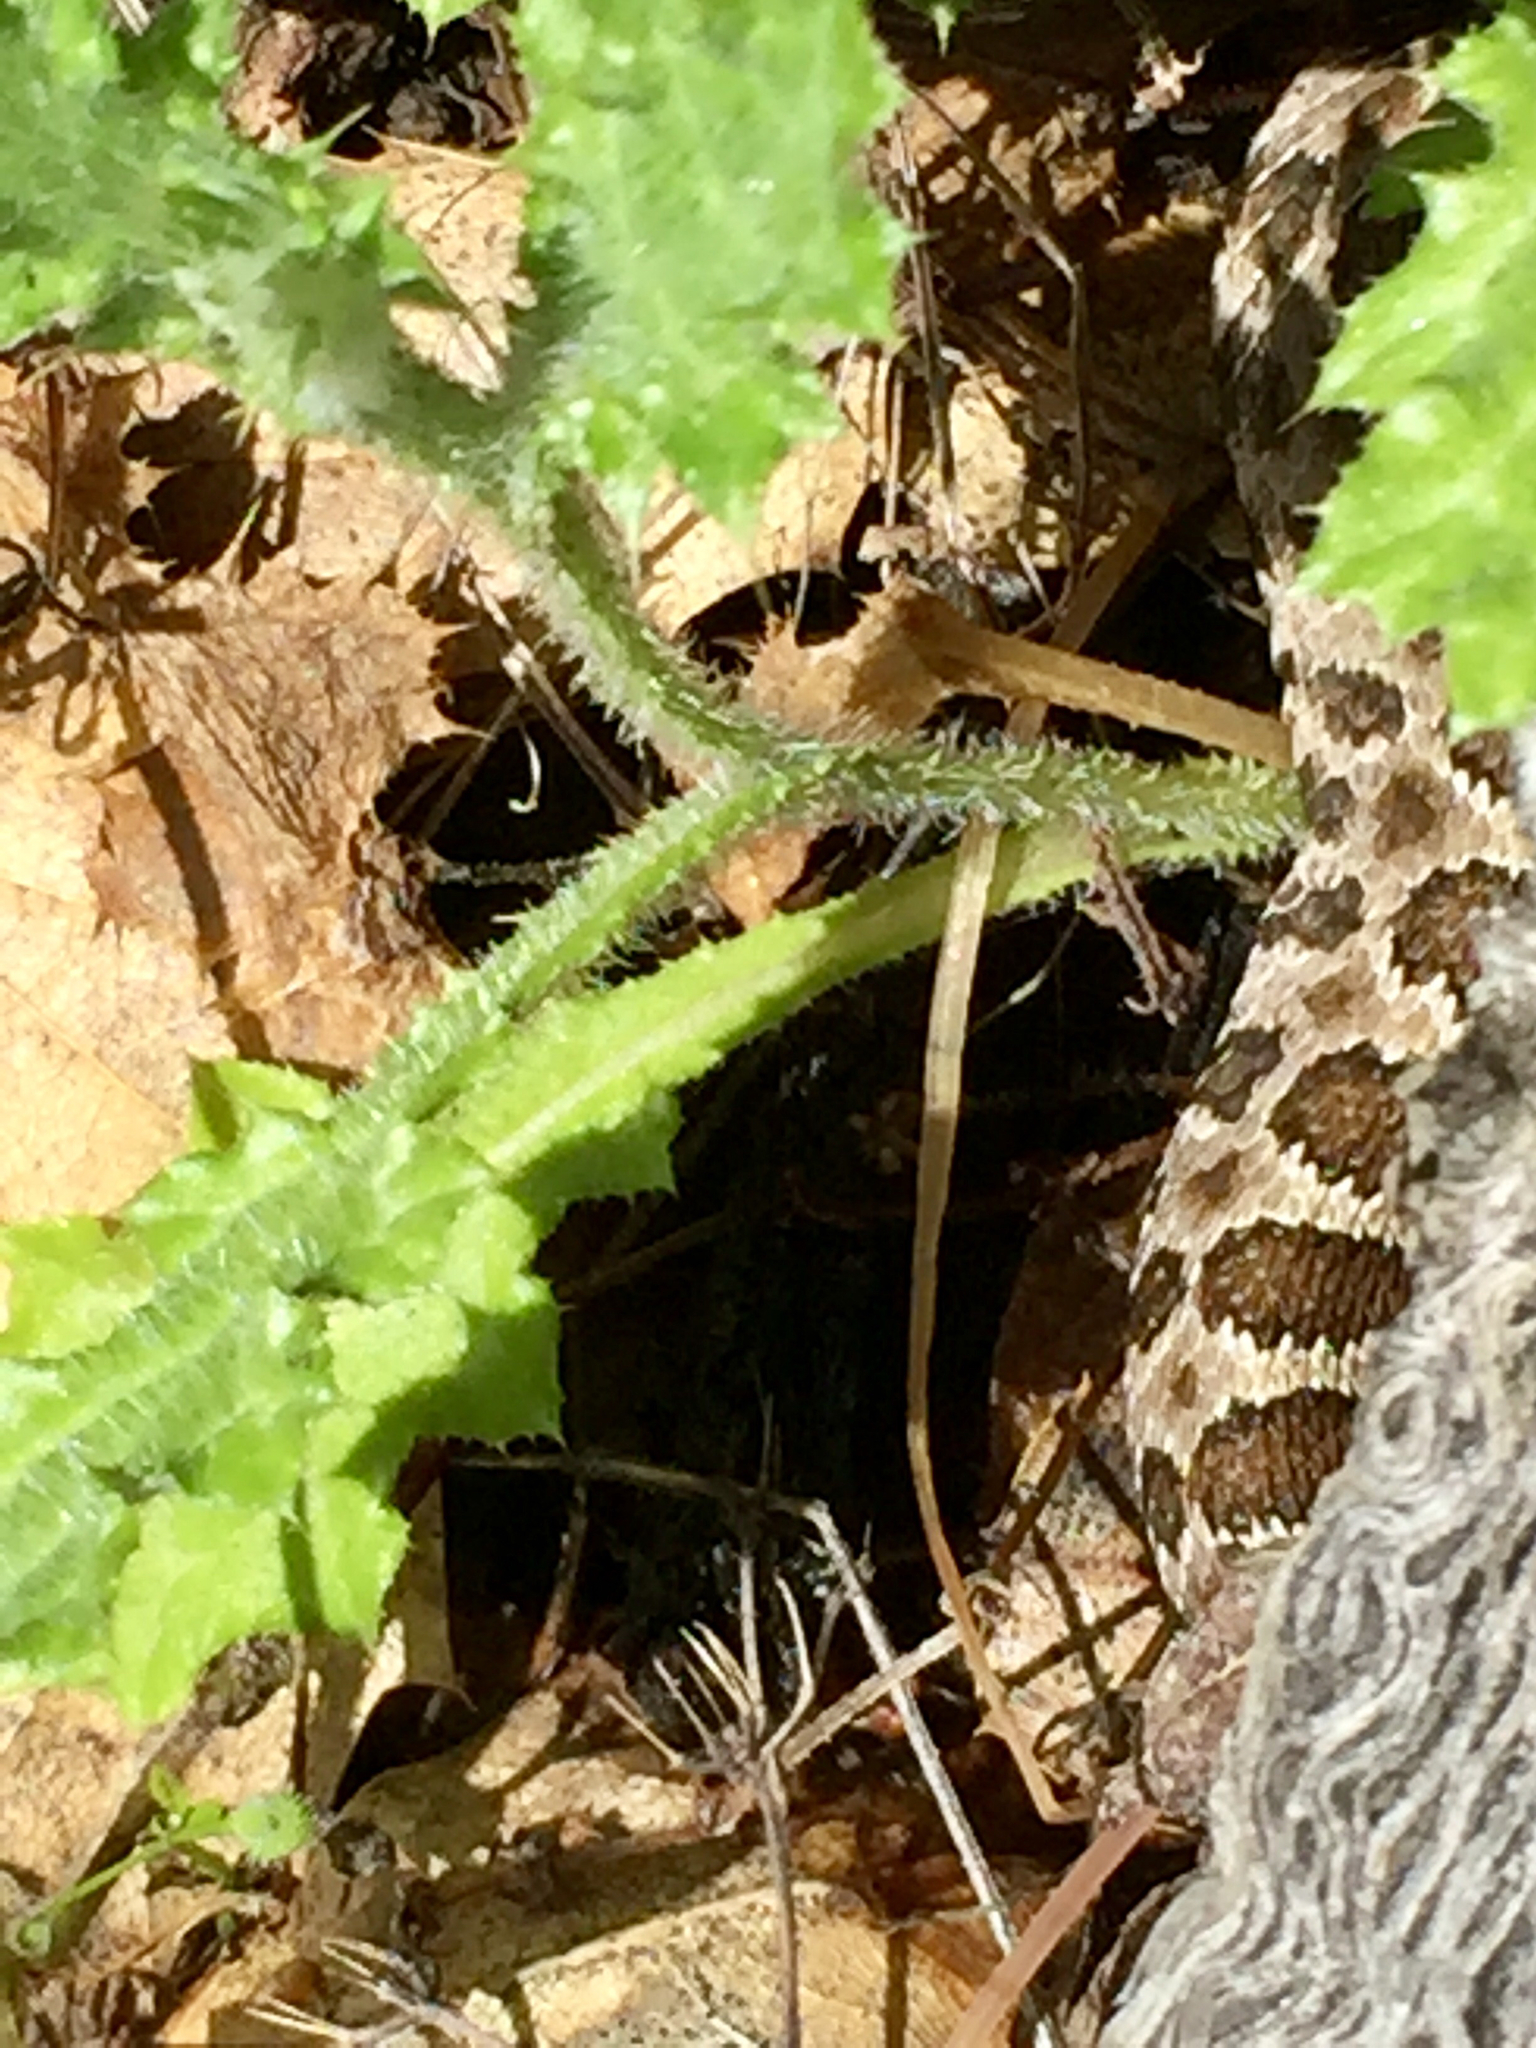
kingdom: Animalia
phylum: Chordata
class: Squamata
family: Viperidae
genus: Crotalus
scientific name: Crotalus oreganus
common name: Abyssus
